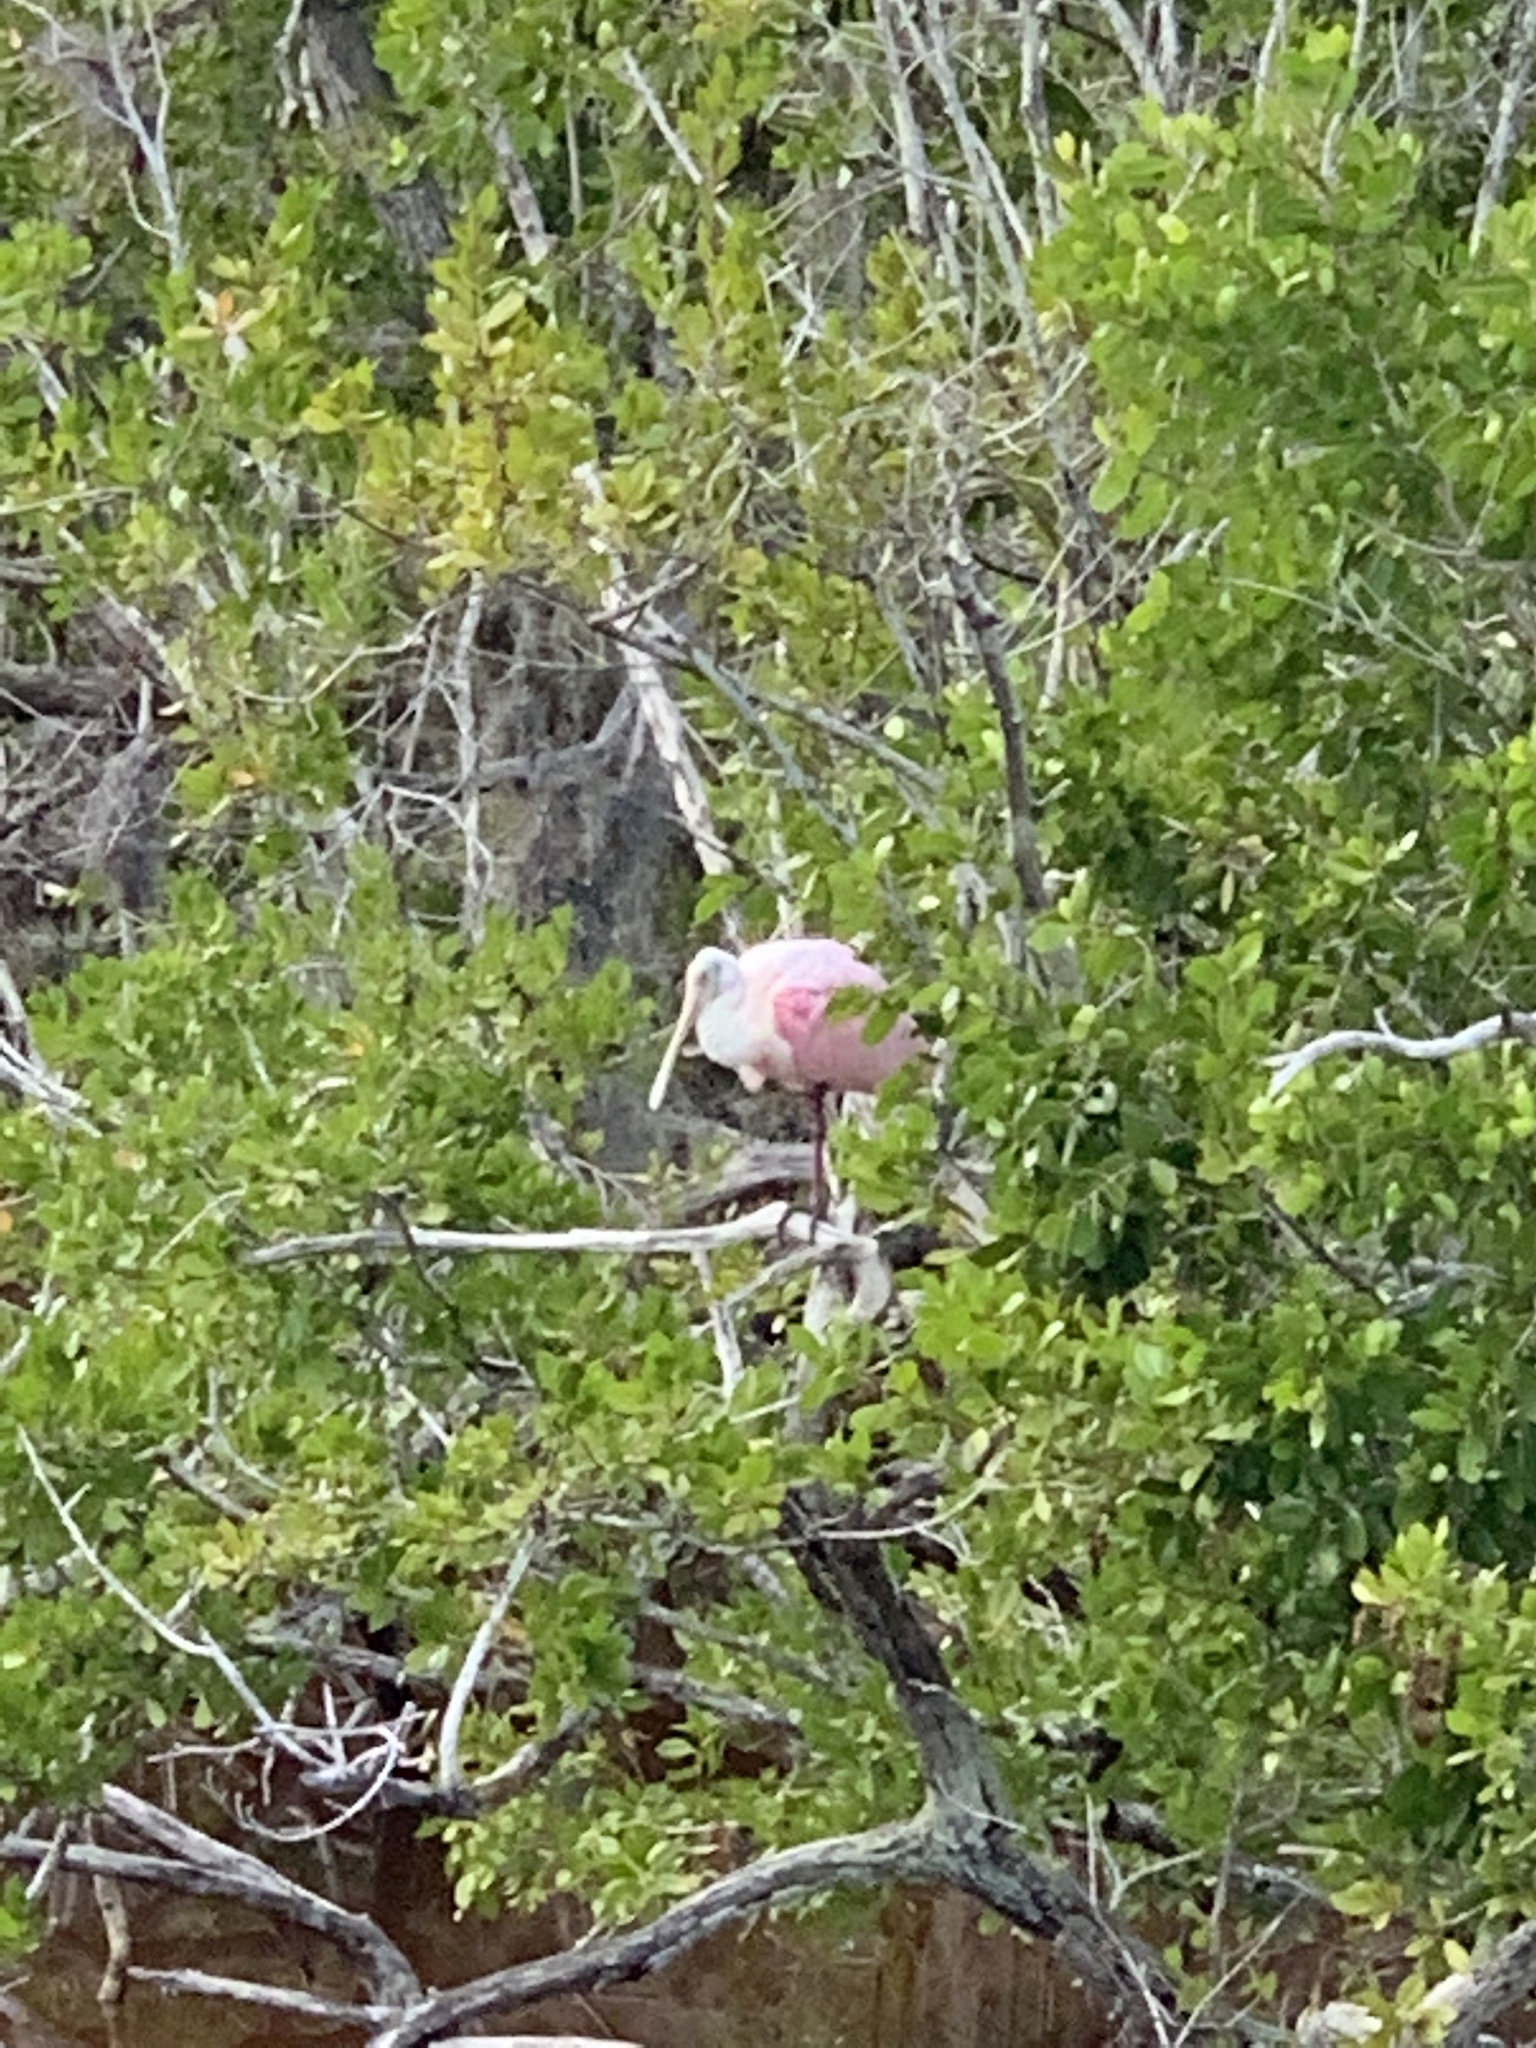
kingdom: Animalia
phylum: Chordata
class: Aves
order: Pelecaniformes
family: Threskiornithidae
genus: Platalea
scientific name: Platalea ajaja
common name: Roseate spoonbill
